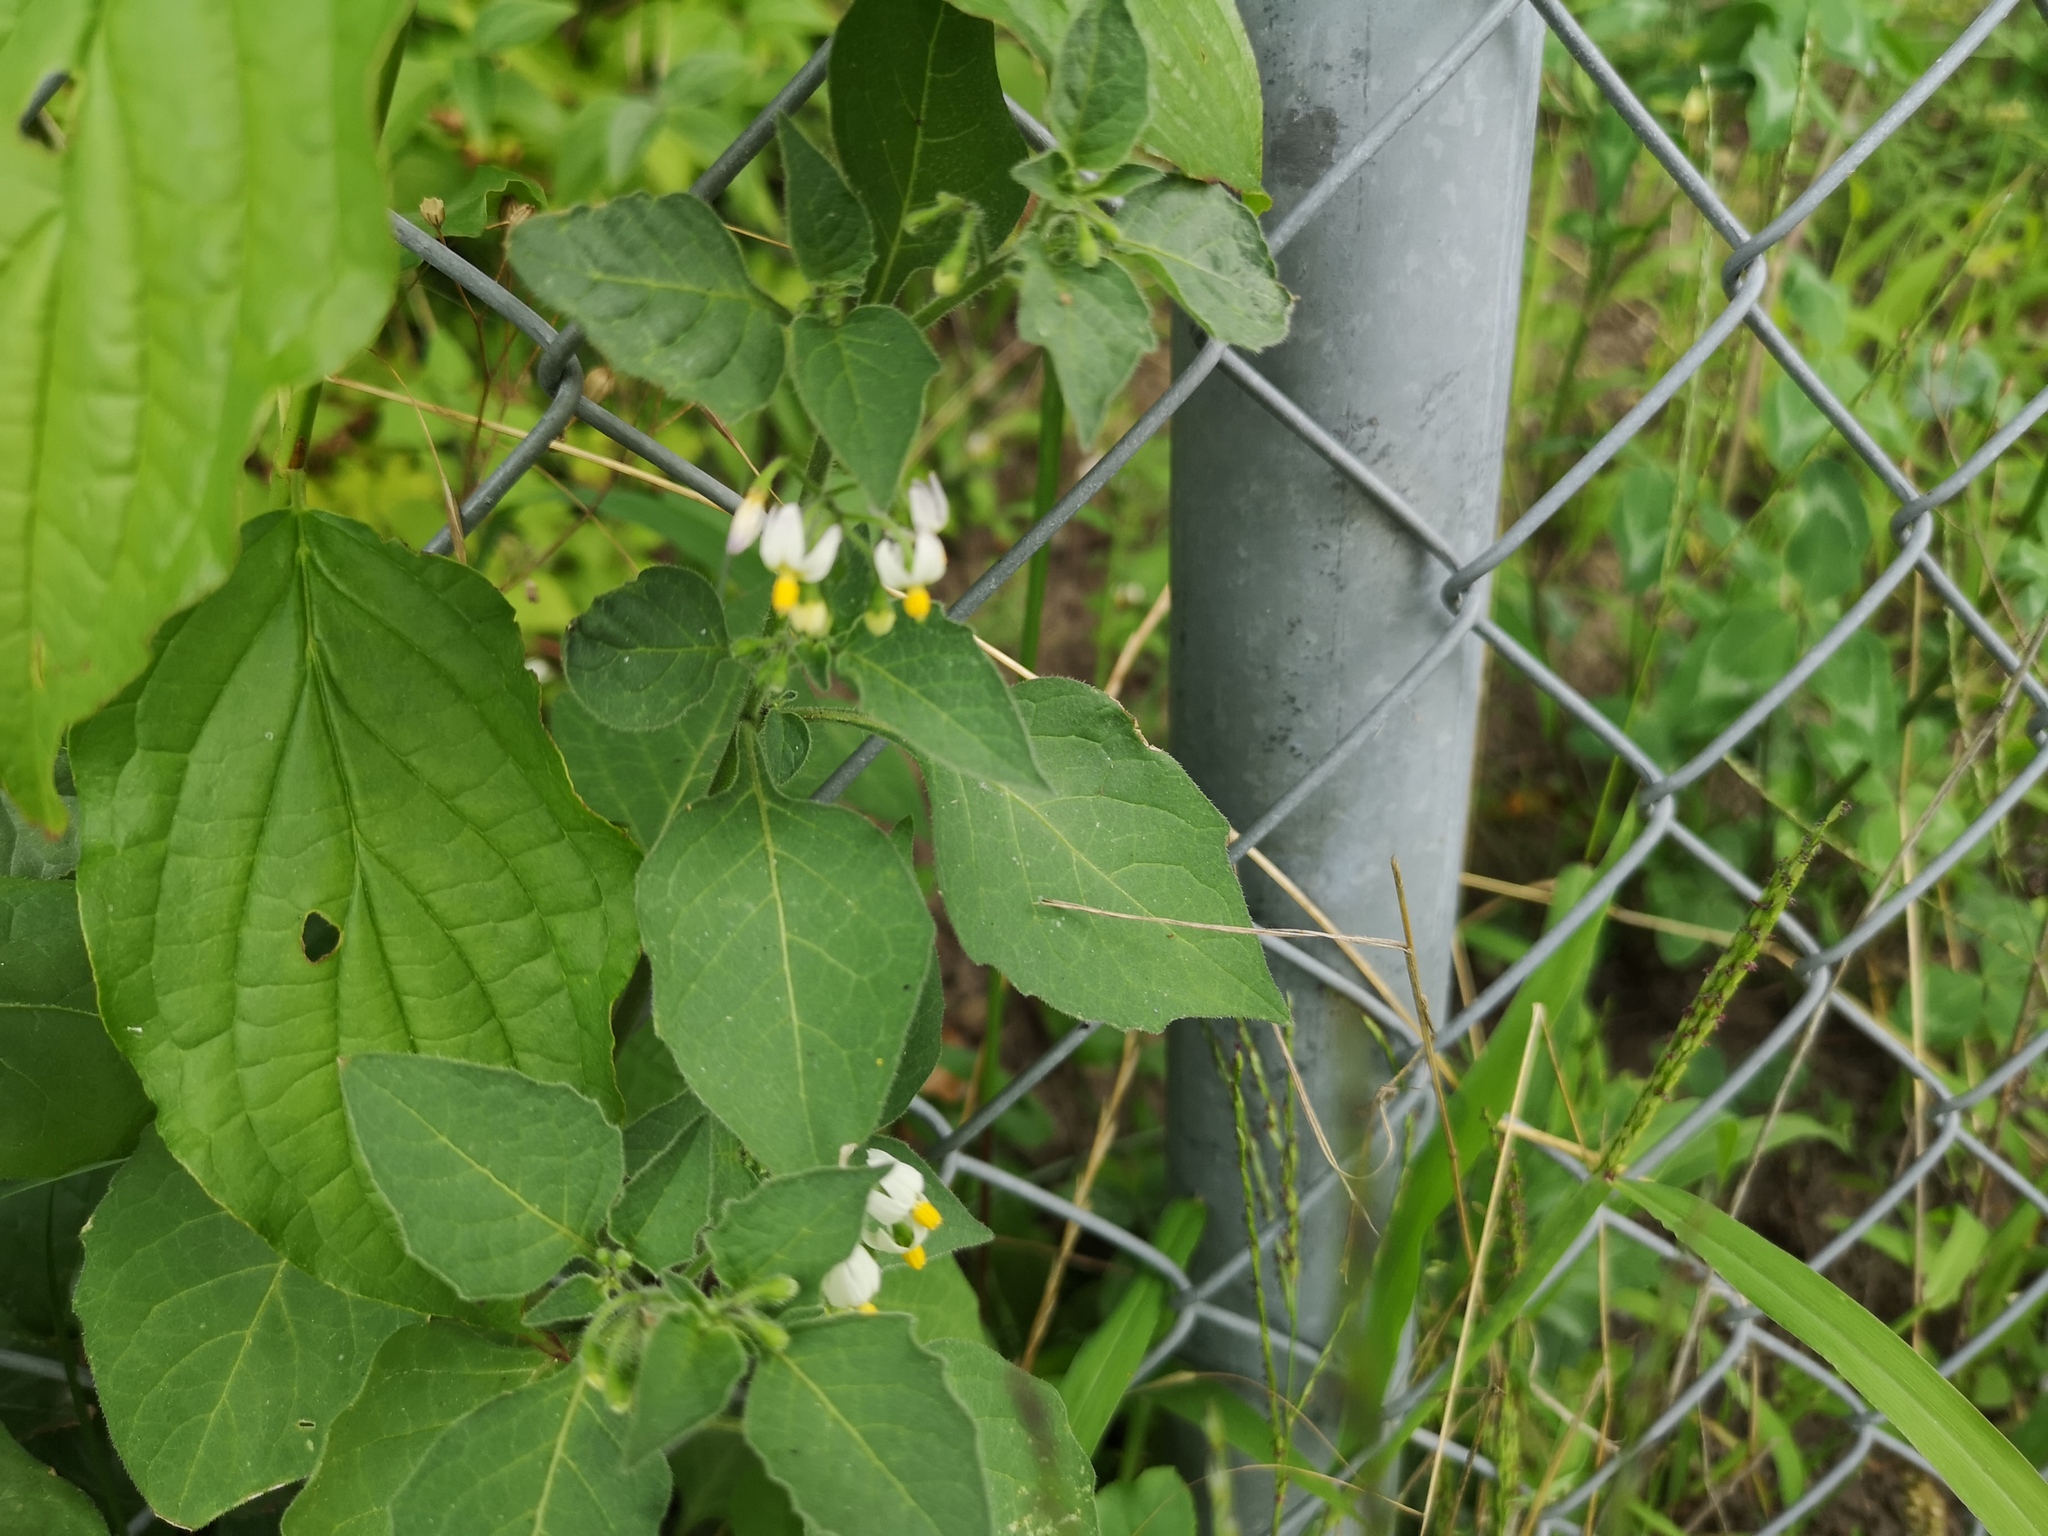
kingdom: Plantae
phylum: Tracheophyta
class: Magnoliopsida
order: Solanales
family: Solanaceae
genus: Solanum
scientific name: Solanum decipiens
